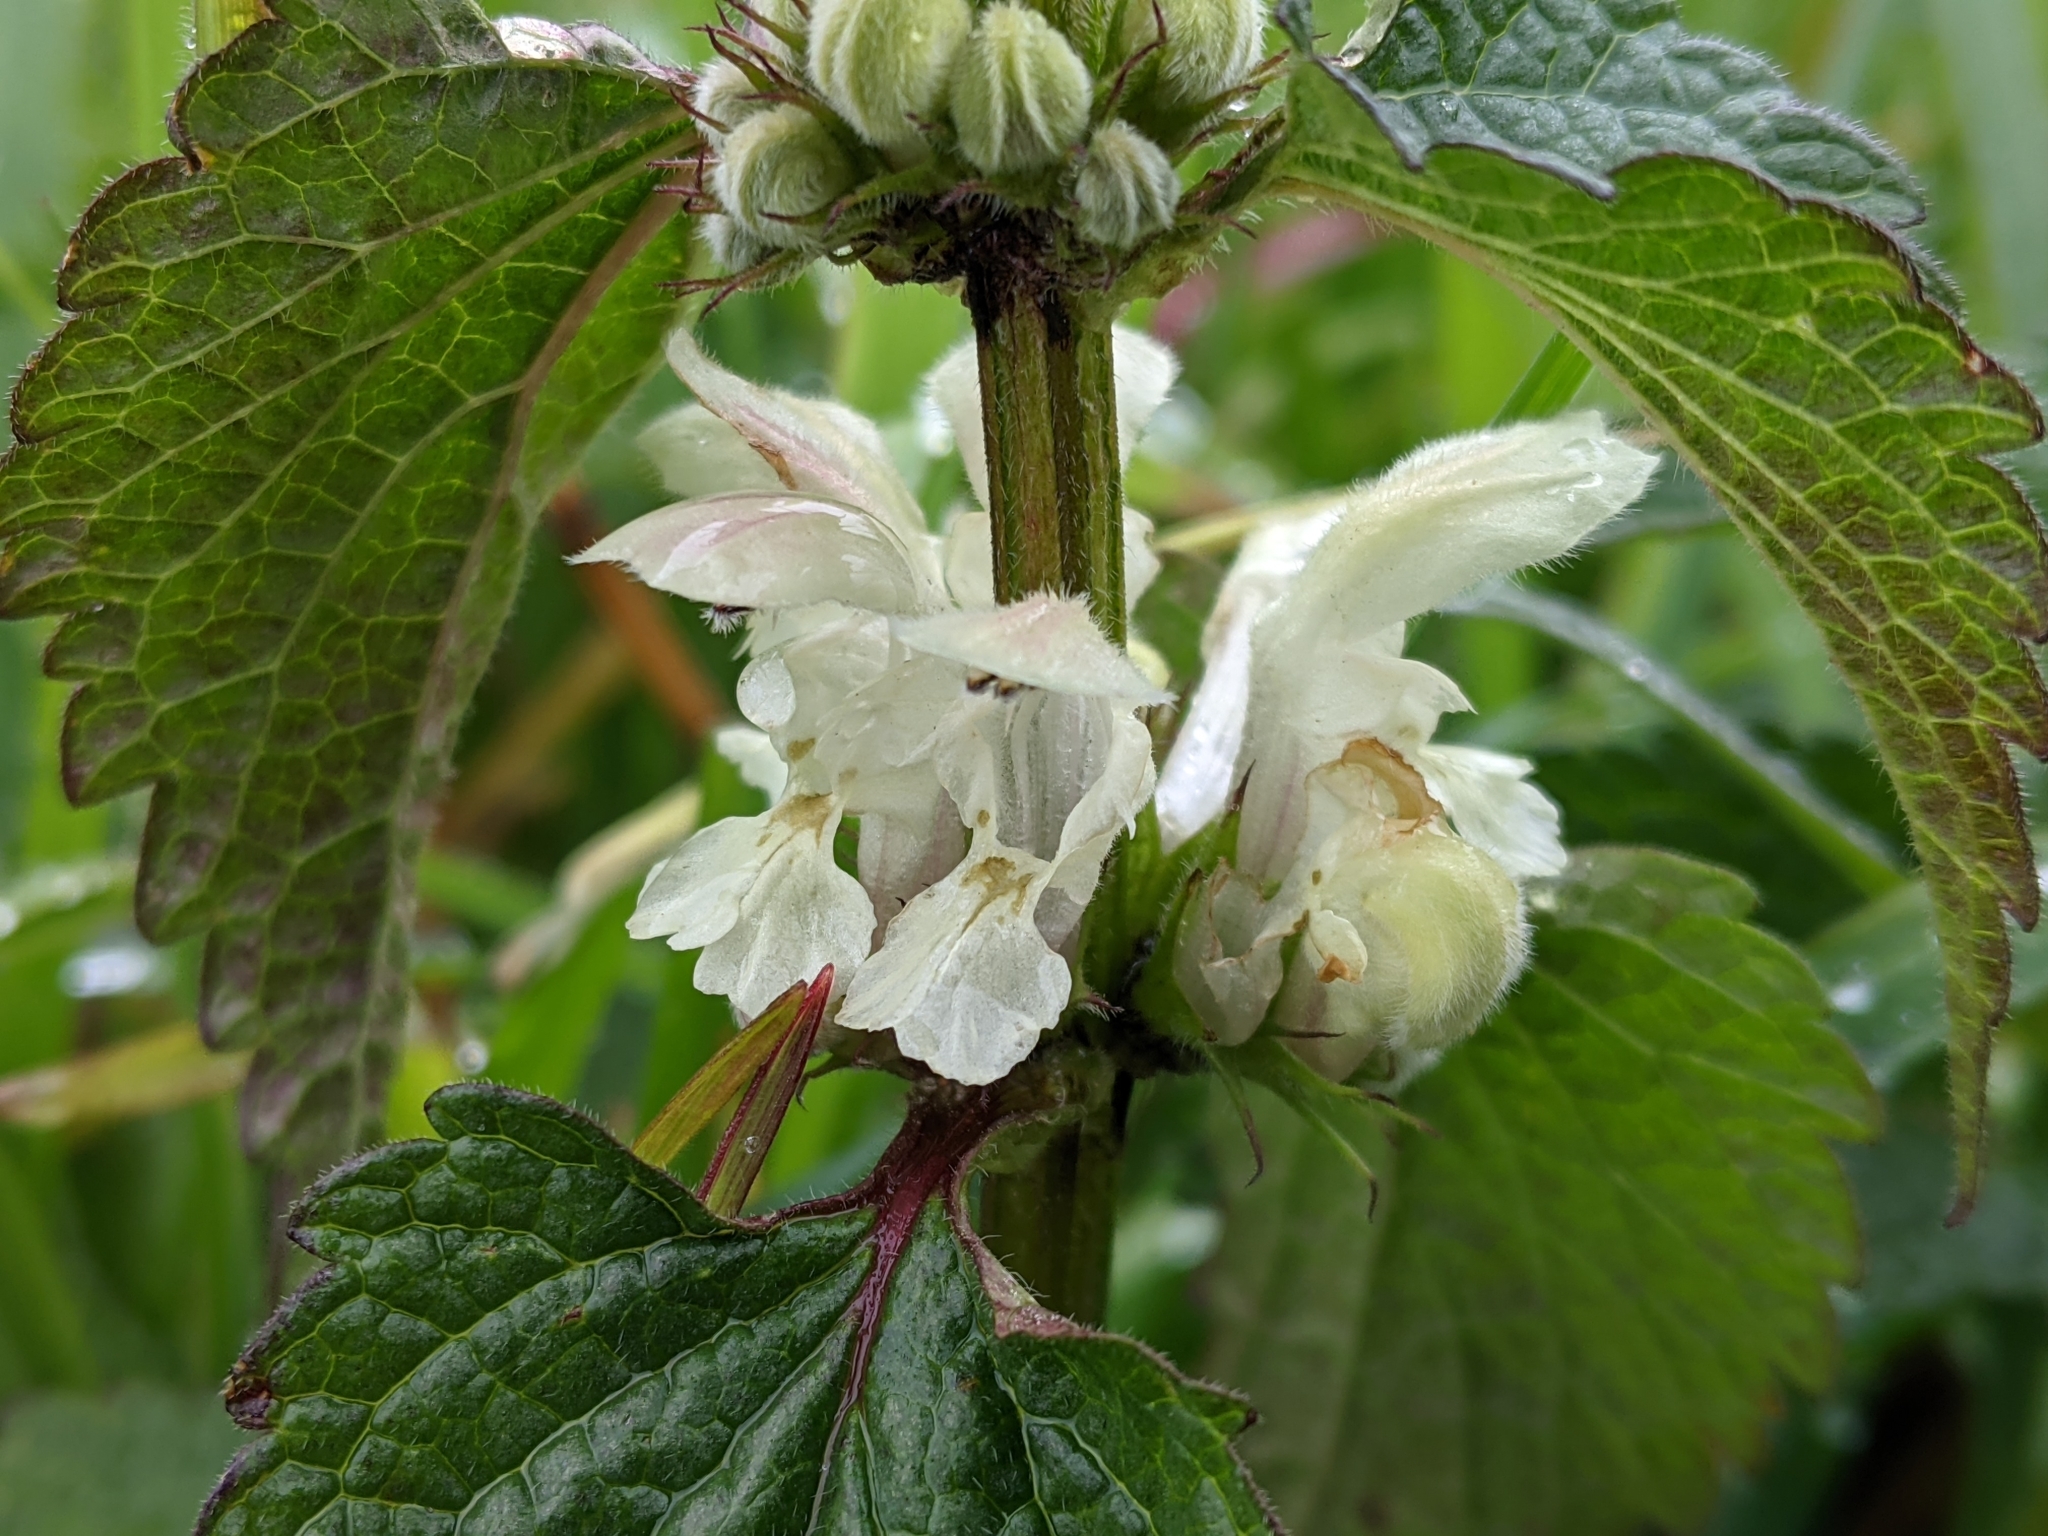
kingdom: Plantae
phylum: Tracheophyta
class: Magnoliopsida
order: Lamiales
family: Lamiaceae
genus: Lamium
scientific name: Lamium album
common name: White dead-nettle
